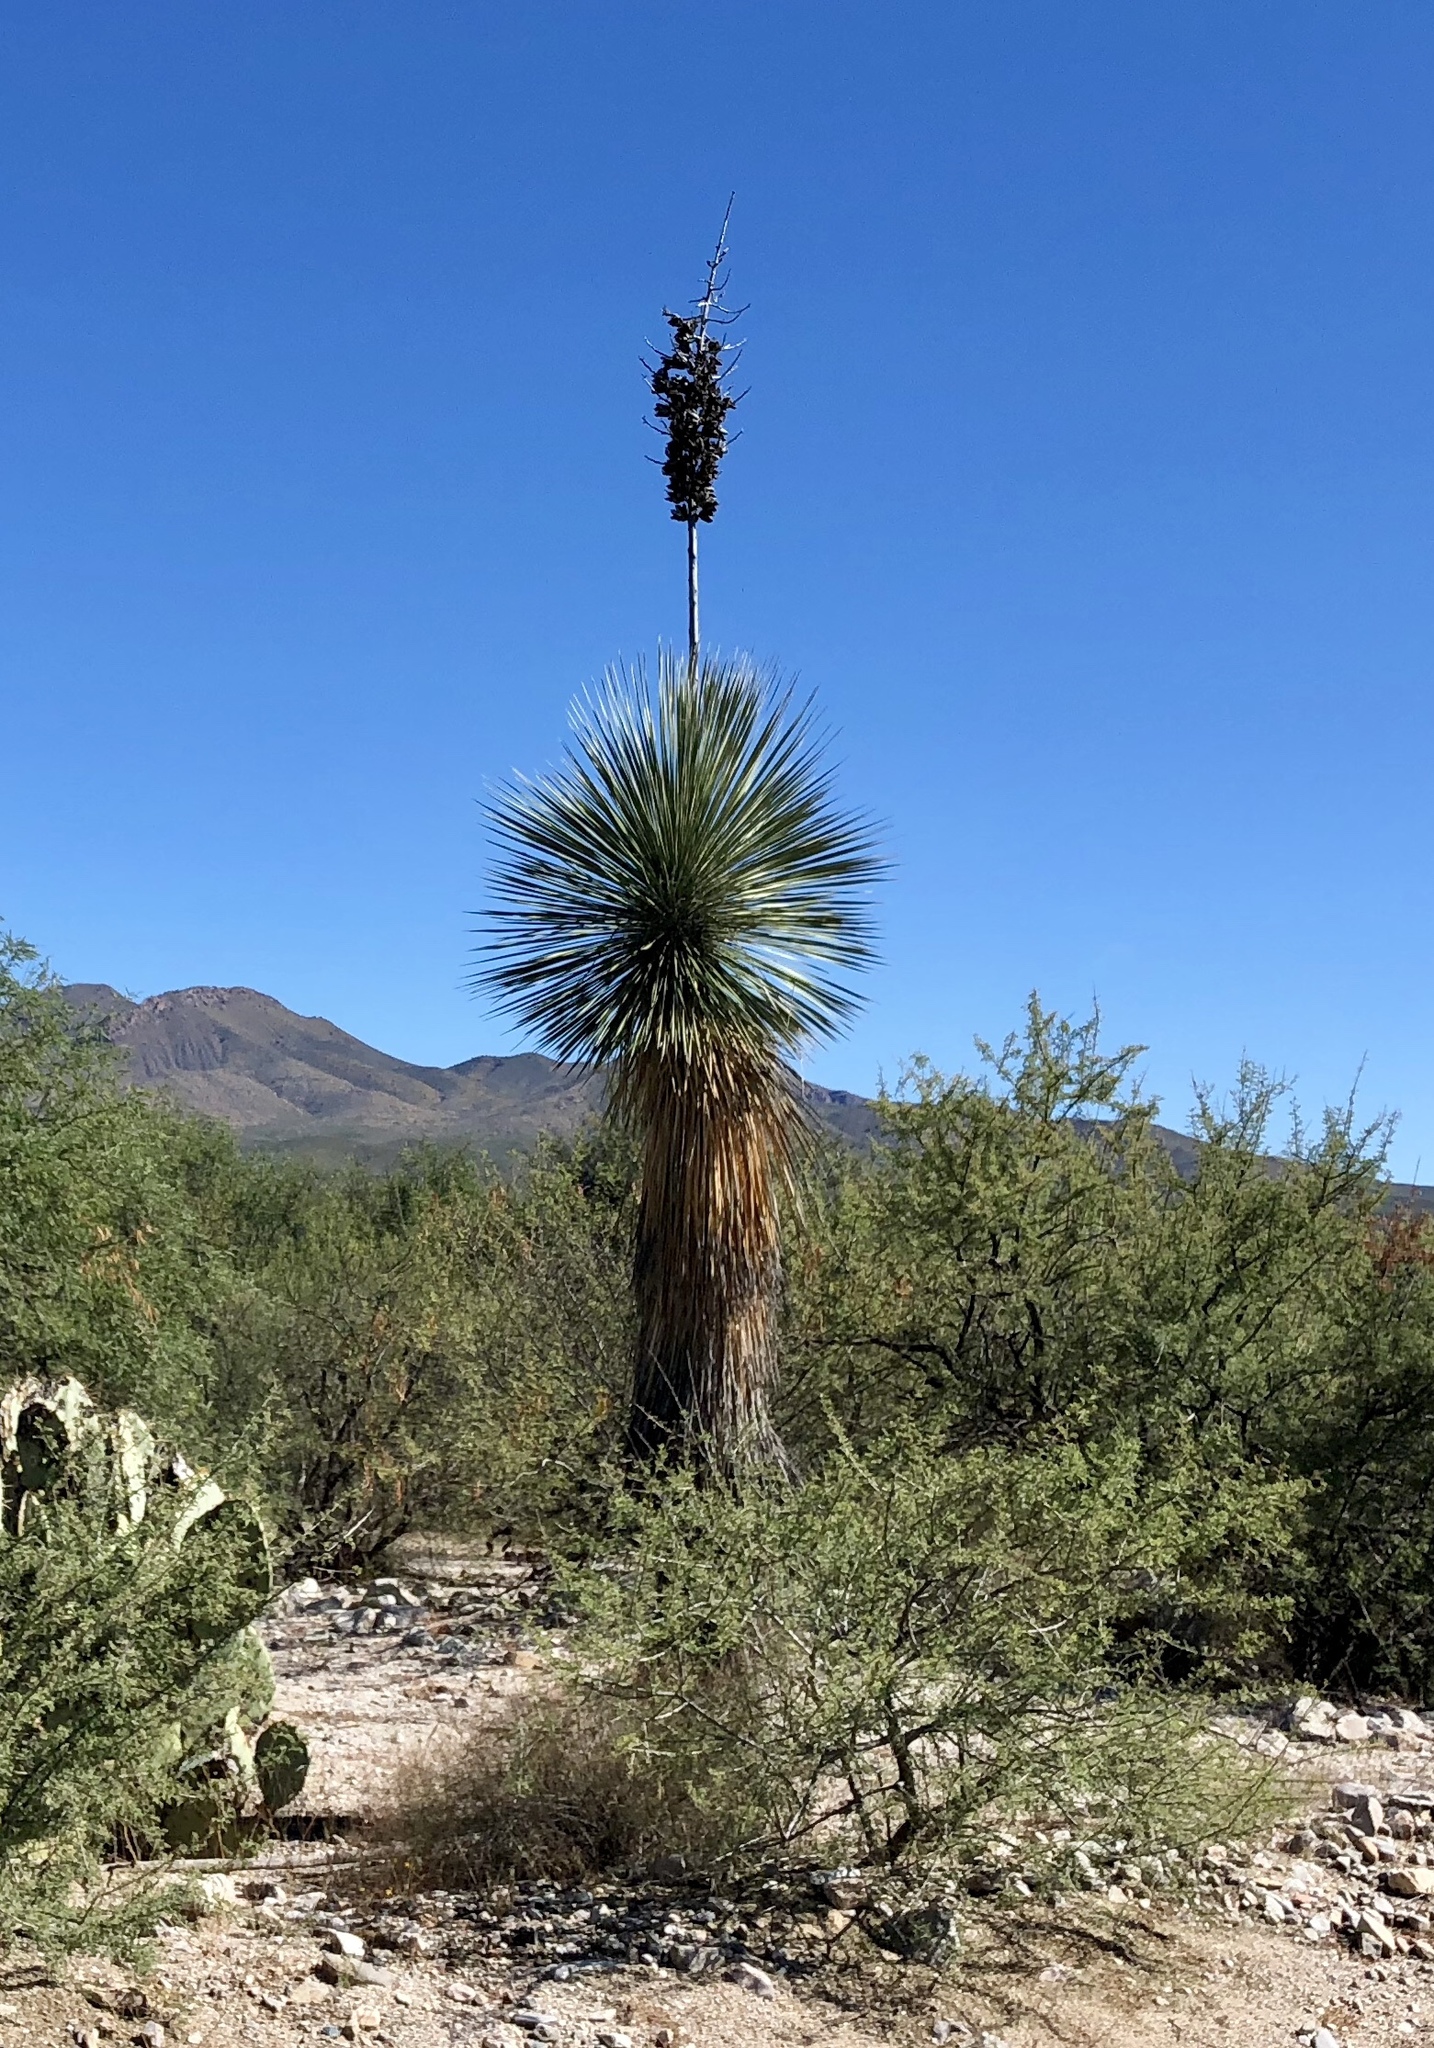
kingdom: Plantae
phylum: Tracheophyta
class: Liliopsida
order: Asparagales
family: Asparagaceae
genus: Yucca
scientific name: Yucca elata
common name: Palmella
